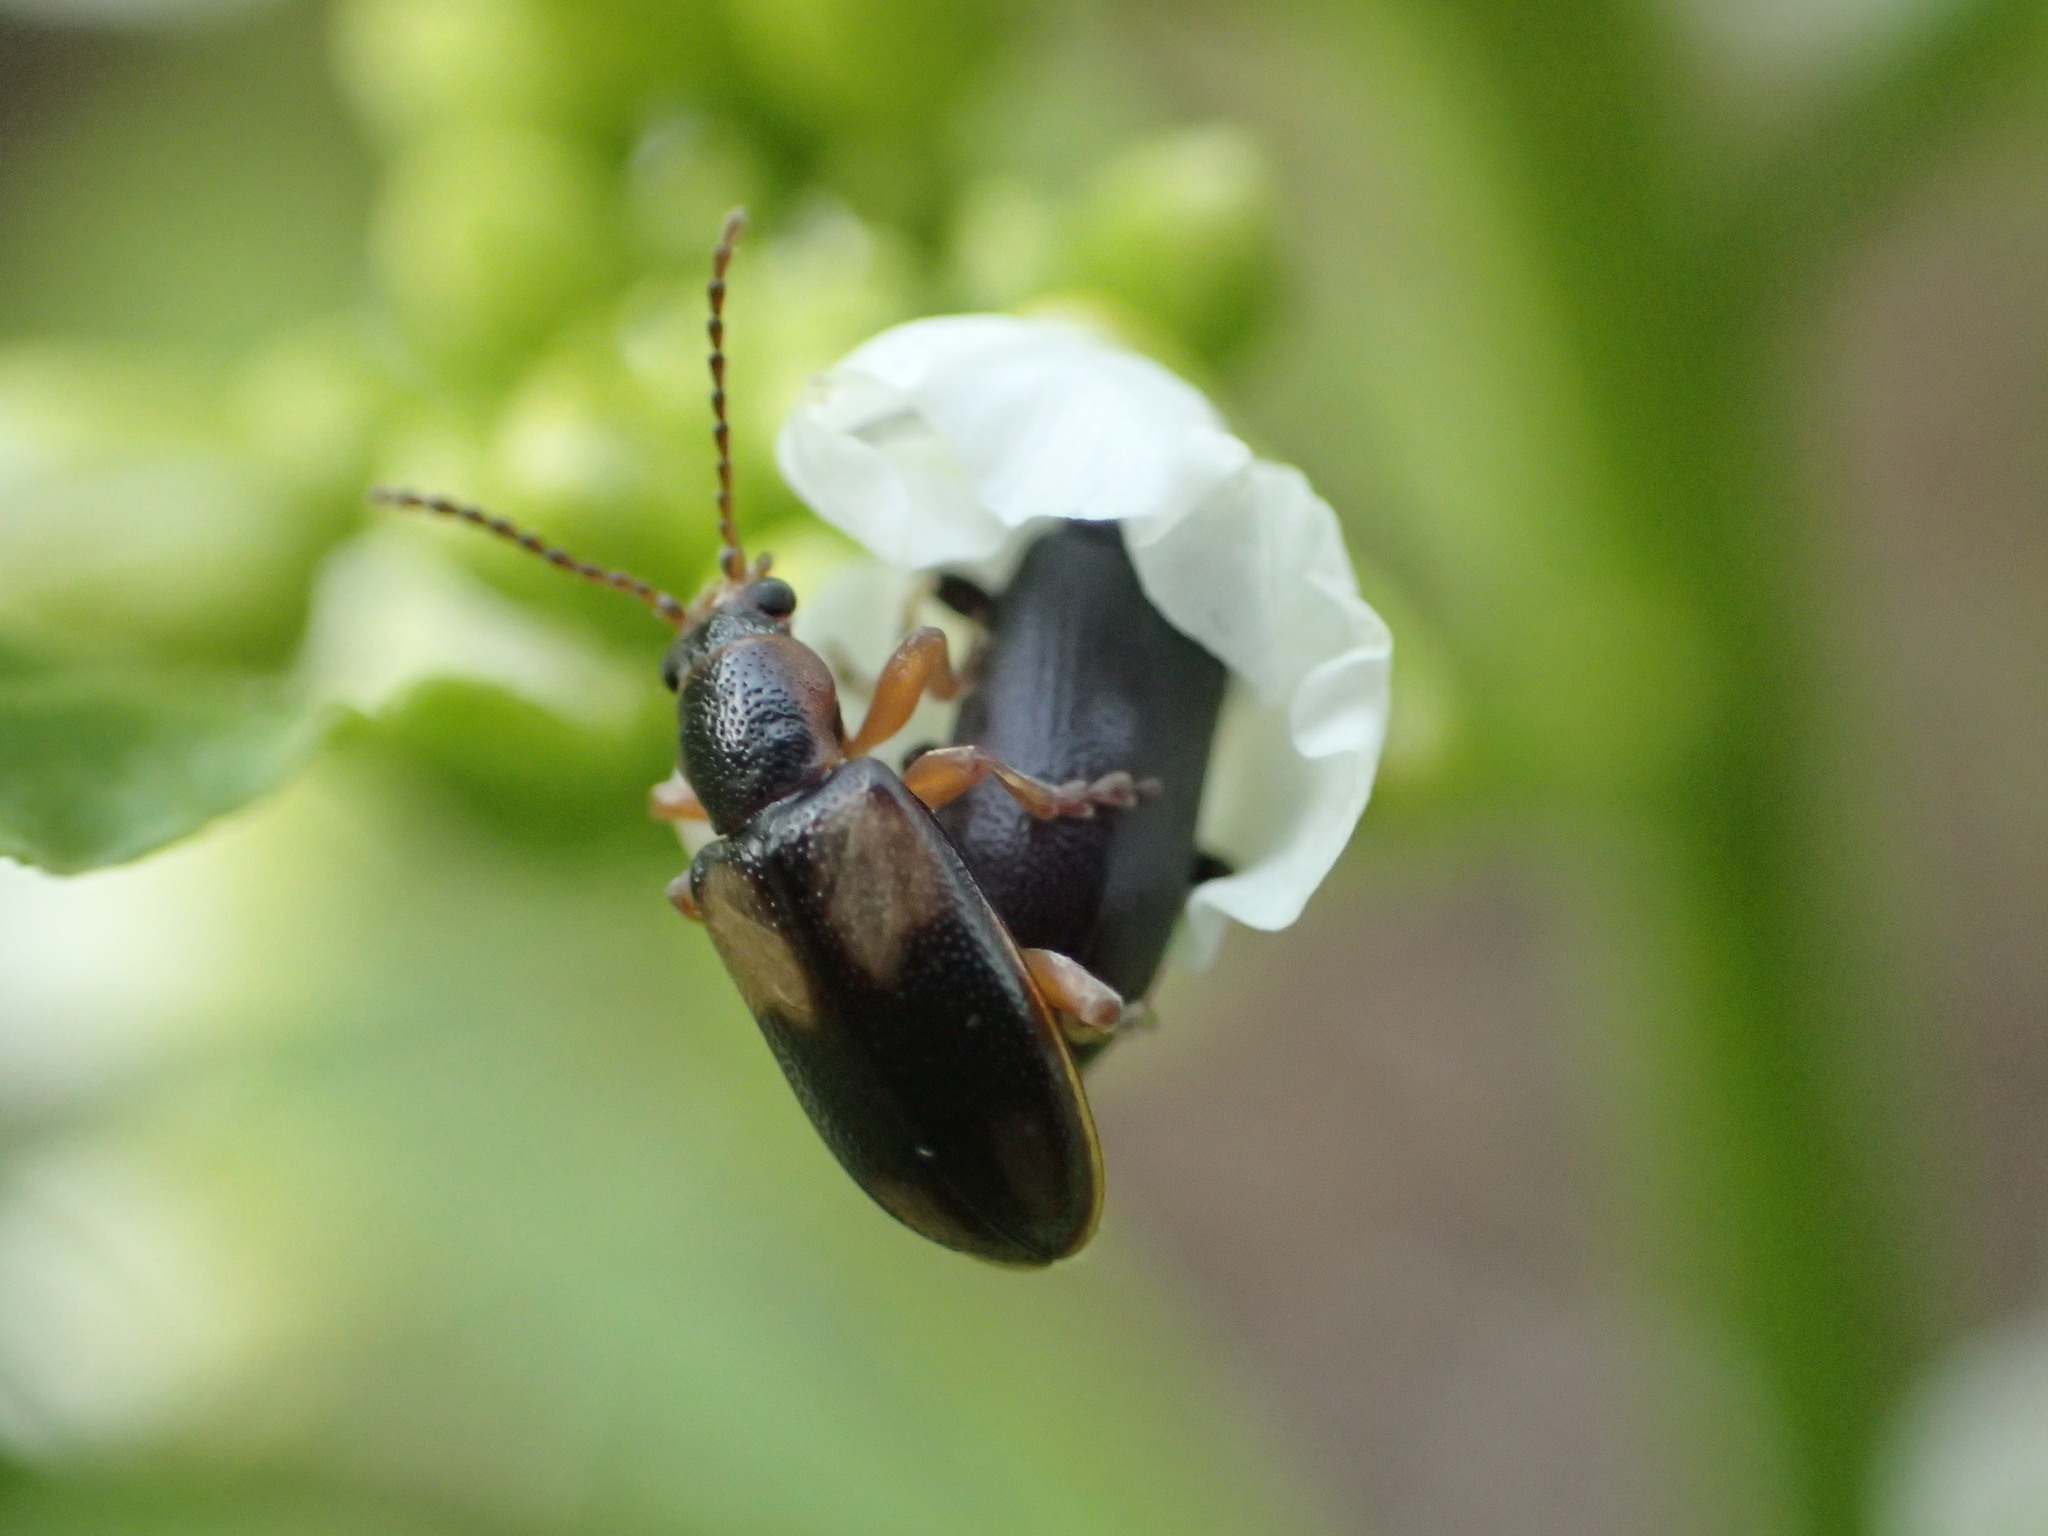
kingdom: Animalia
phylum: Arthropoda
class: Insecta
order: Coleoptera
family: Orsodacnidae
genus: Orsodacne
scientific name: Orsodacne atra
